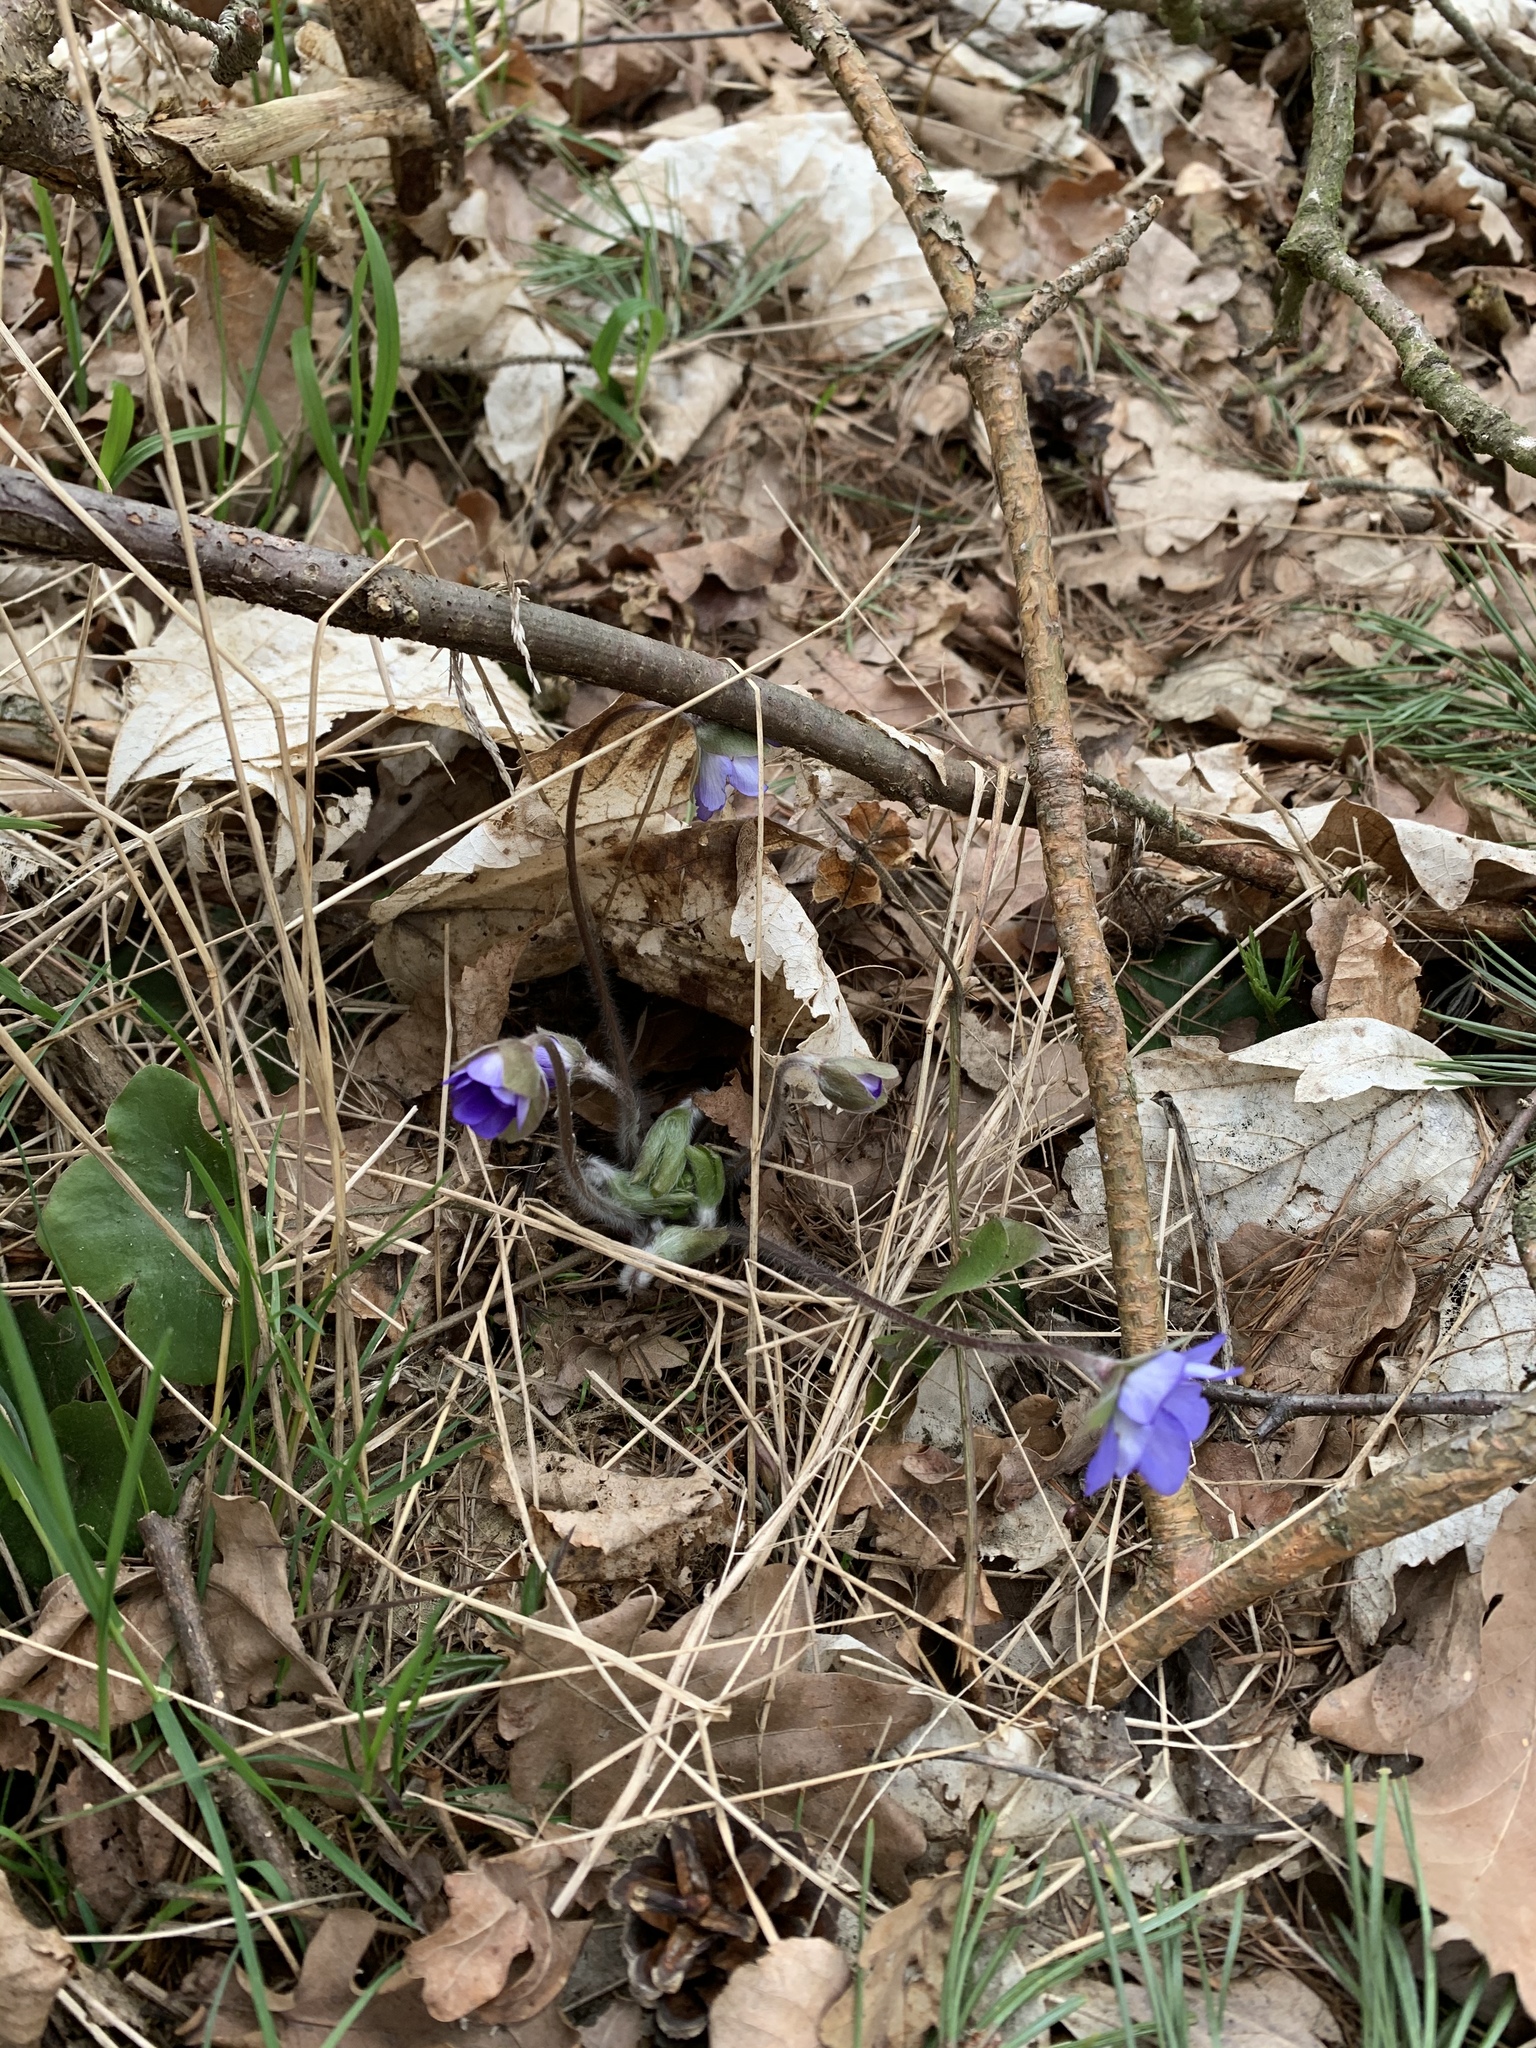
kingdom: Plantae
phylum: Tracheophyta
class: Magnoliopsida
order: Ranunculales
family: Ranunculaceae
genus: Hepatica
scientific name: Hepatica nobilis
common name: Liverleaf
